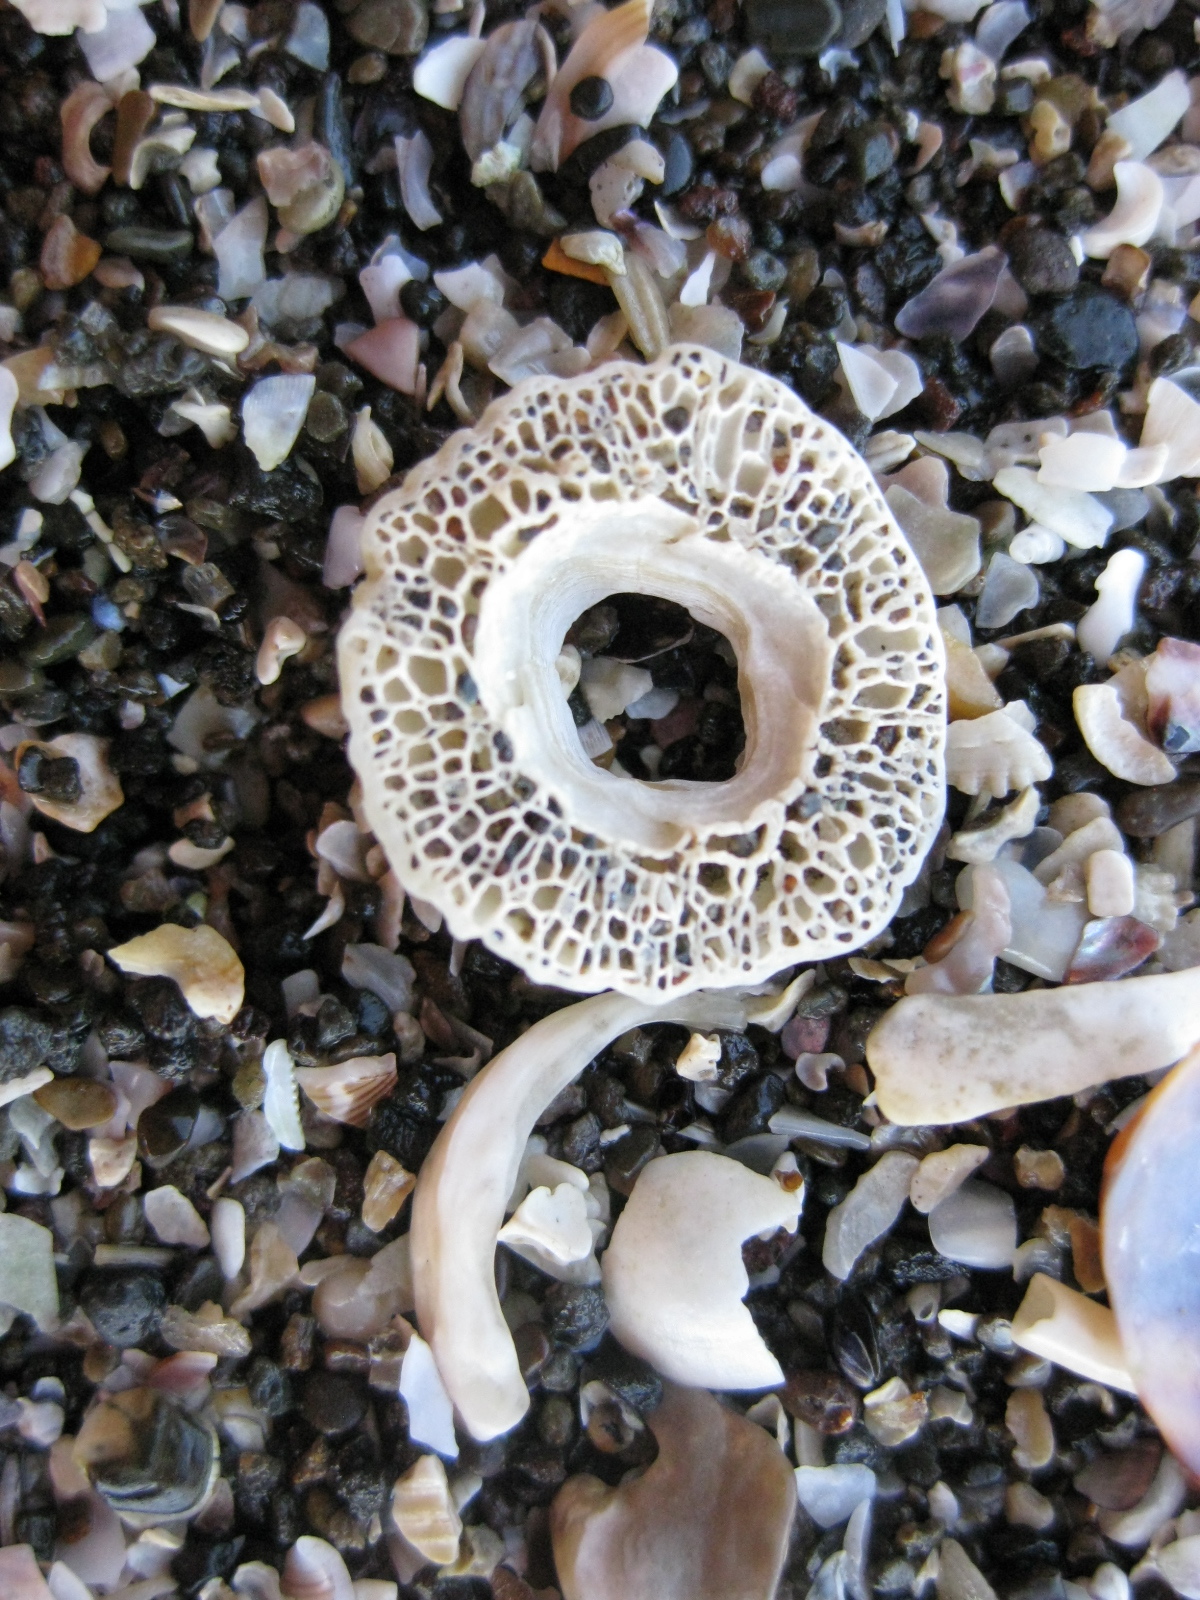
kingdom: Animalia
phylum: Arthropoda
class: Maxillopoda
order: Sessilia
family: Tetraclitidae
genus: Tetraclitella
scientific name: Tetraclitella depressa
